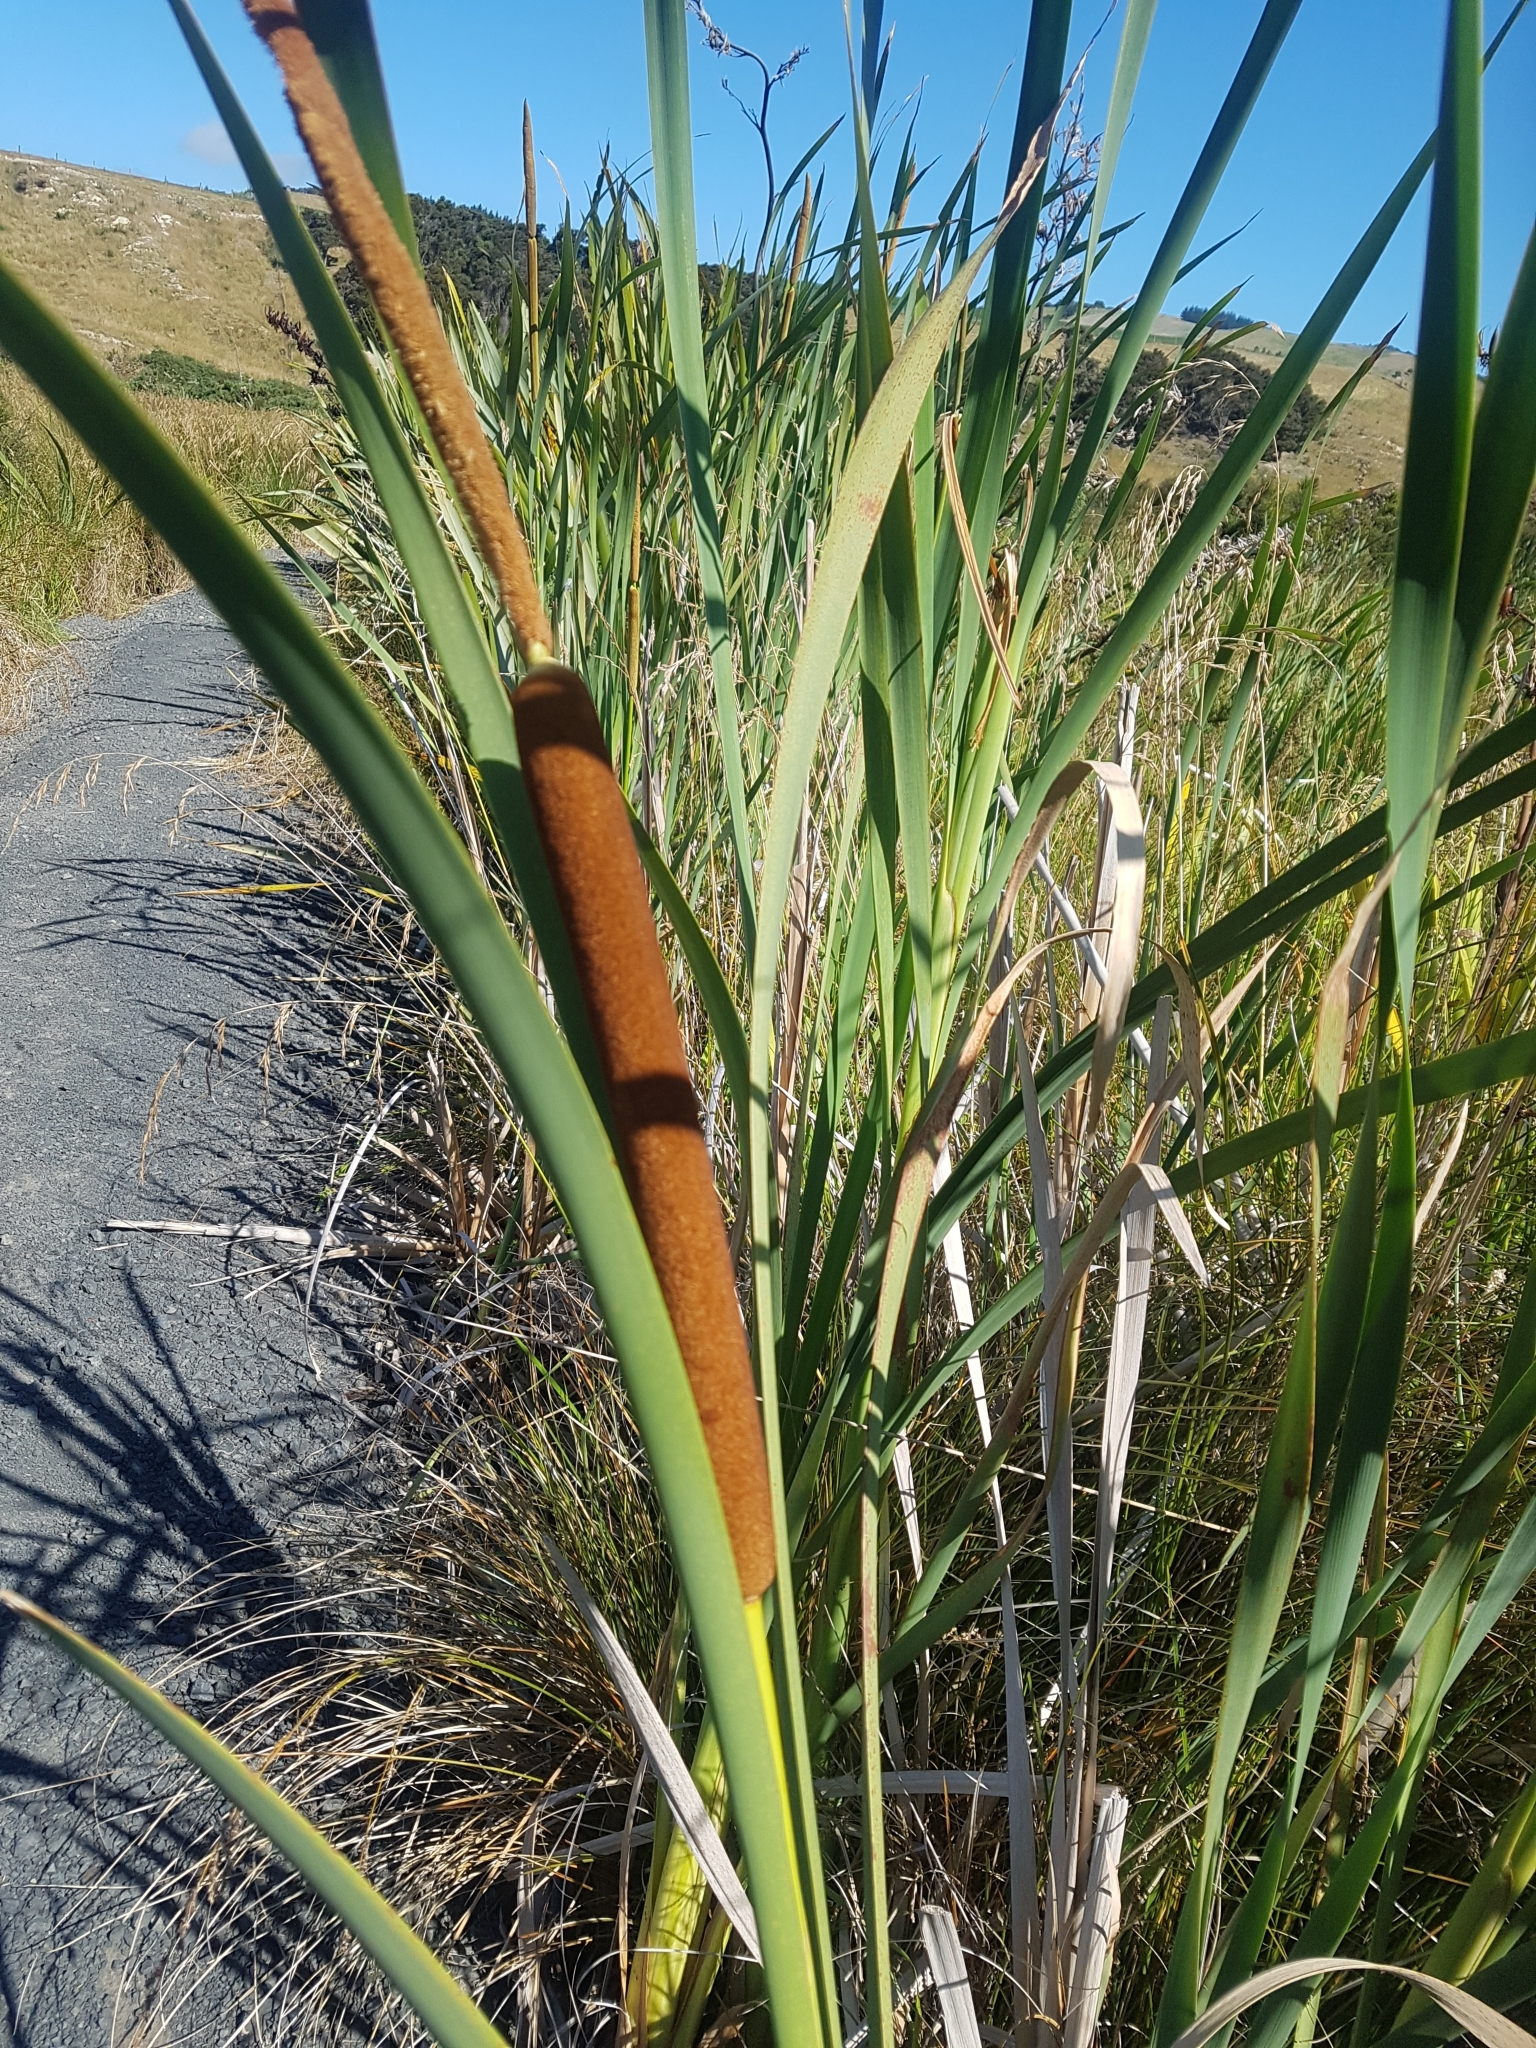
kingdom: Plantae
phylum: Tracheophyta
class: Liliopsida
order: Poales
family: Typhaceae
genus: Typha
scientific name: Typha orientalis
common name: Bullrush
